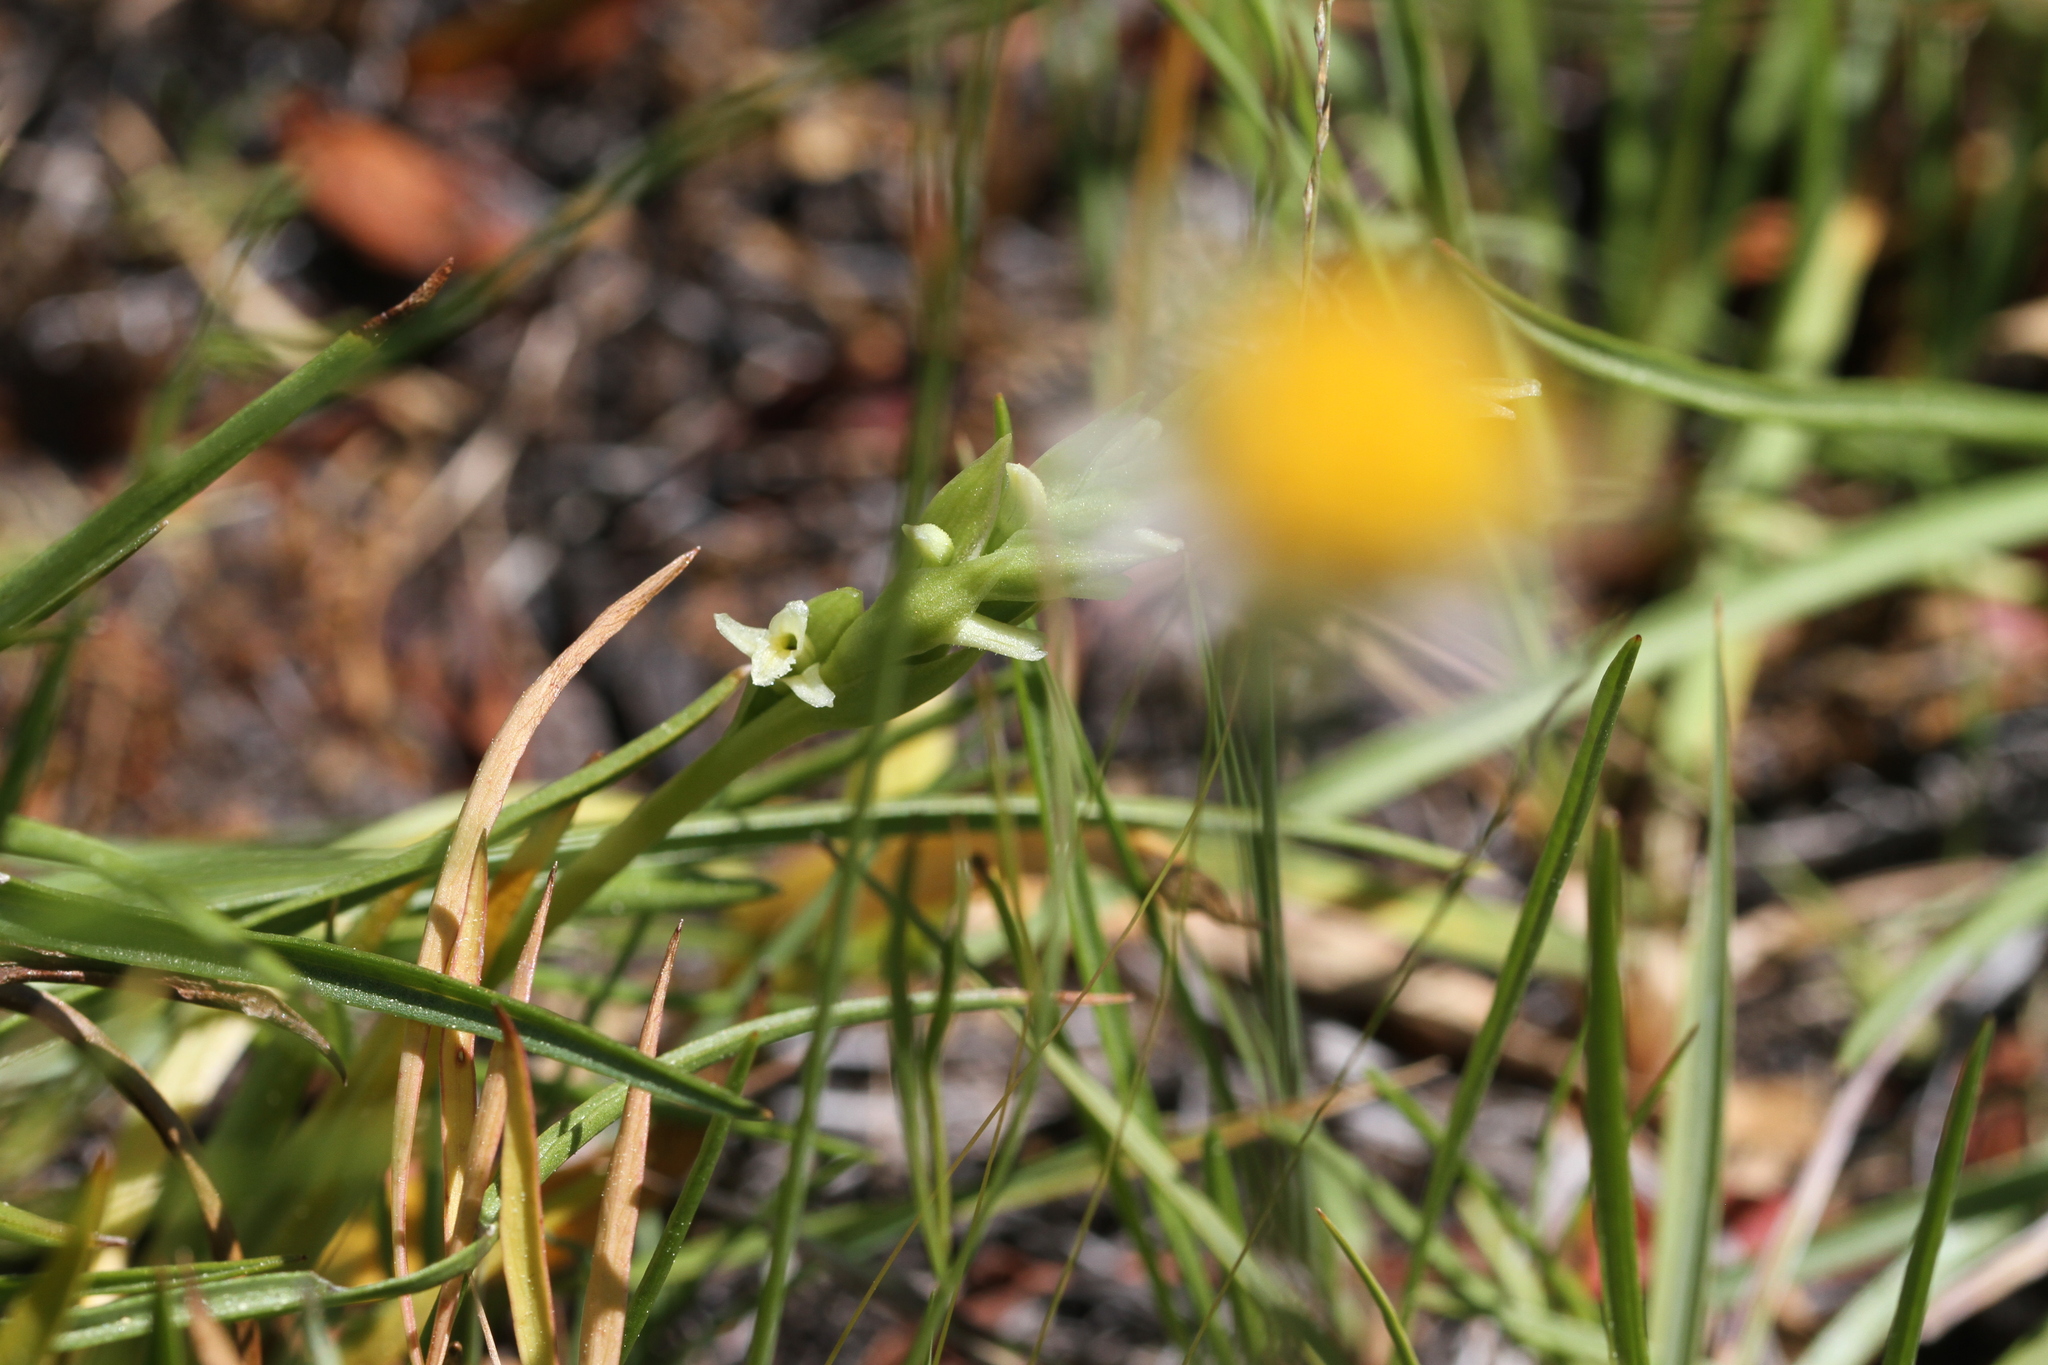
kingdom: Plantae
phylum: Tracheophyta
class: Liliopsida
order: Asparagales
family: Orchidaceae
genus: Spiranthes
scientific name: Spiranthes stellata
